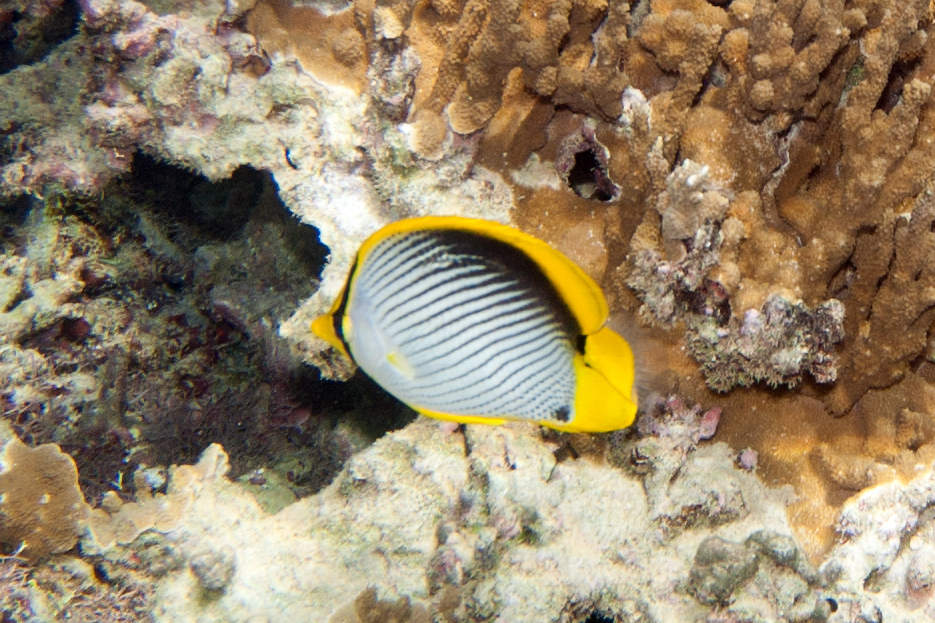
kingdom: Animalia
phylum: Chordata
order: Perciformes
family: Chaetodontidae
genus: Chaetodon
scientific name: Chaetodon melannotus
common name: Blackback butterflyfish
